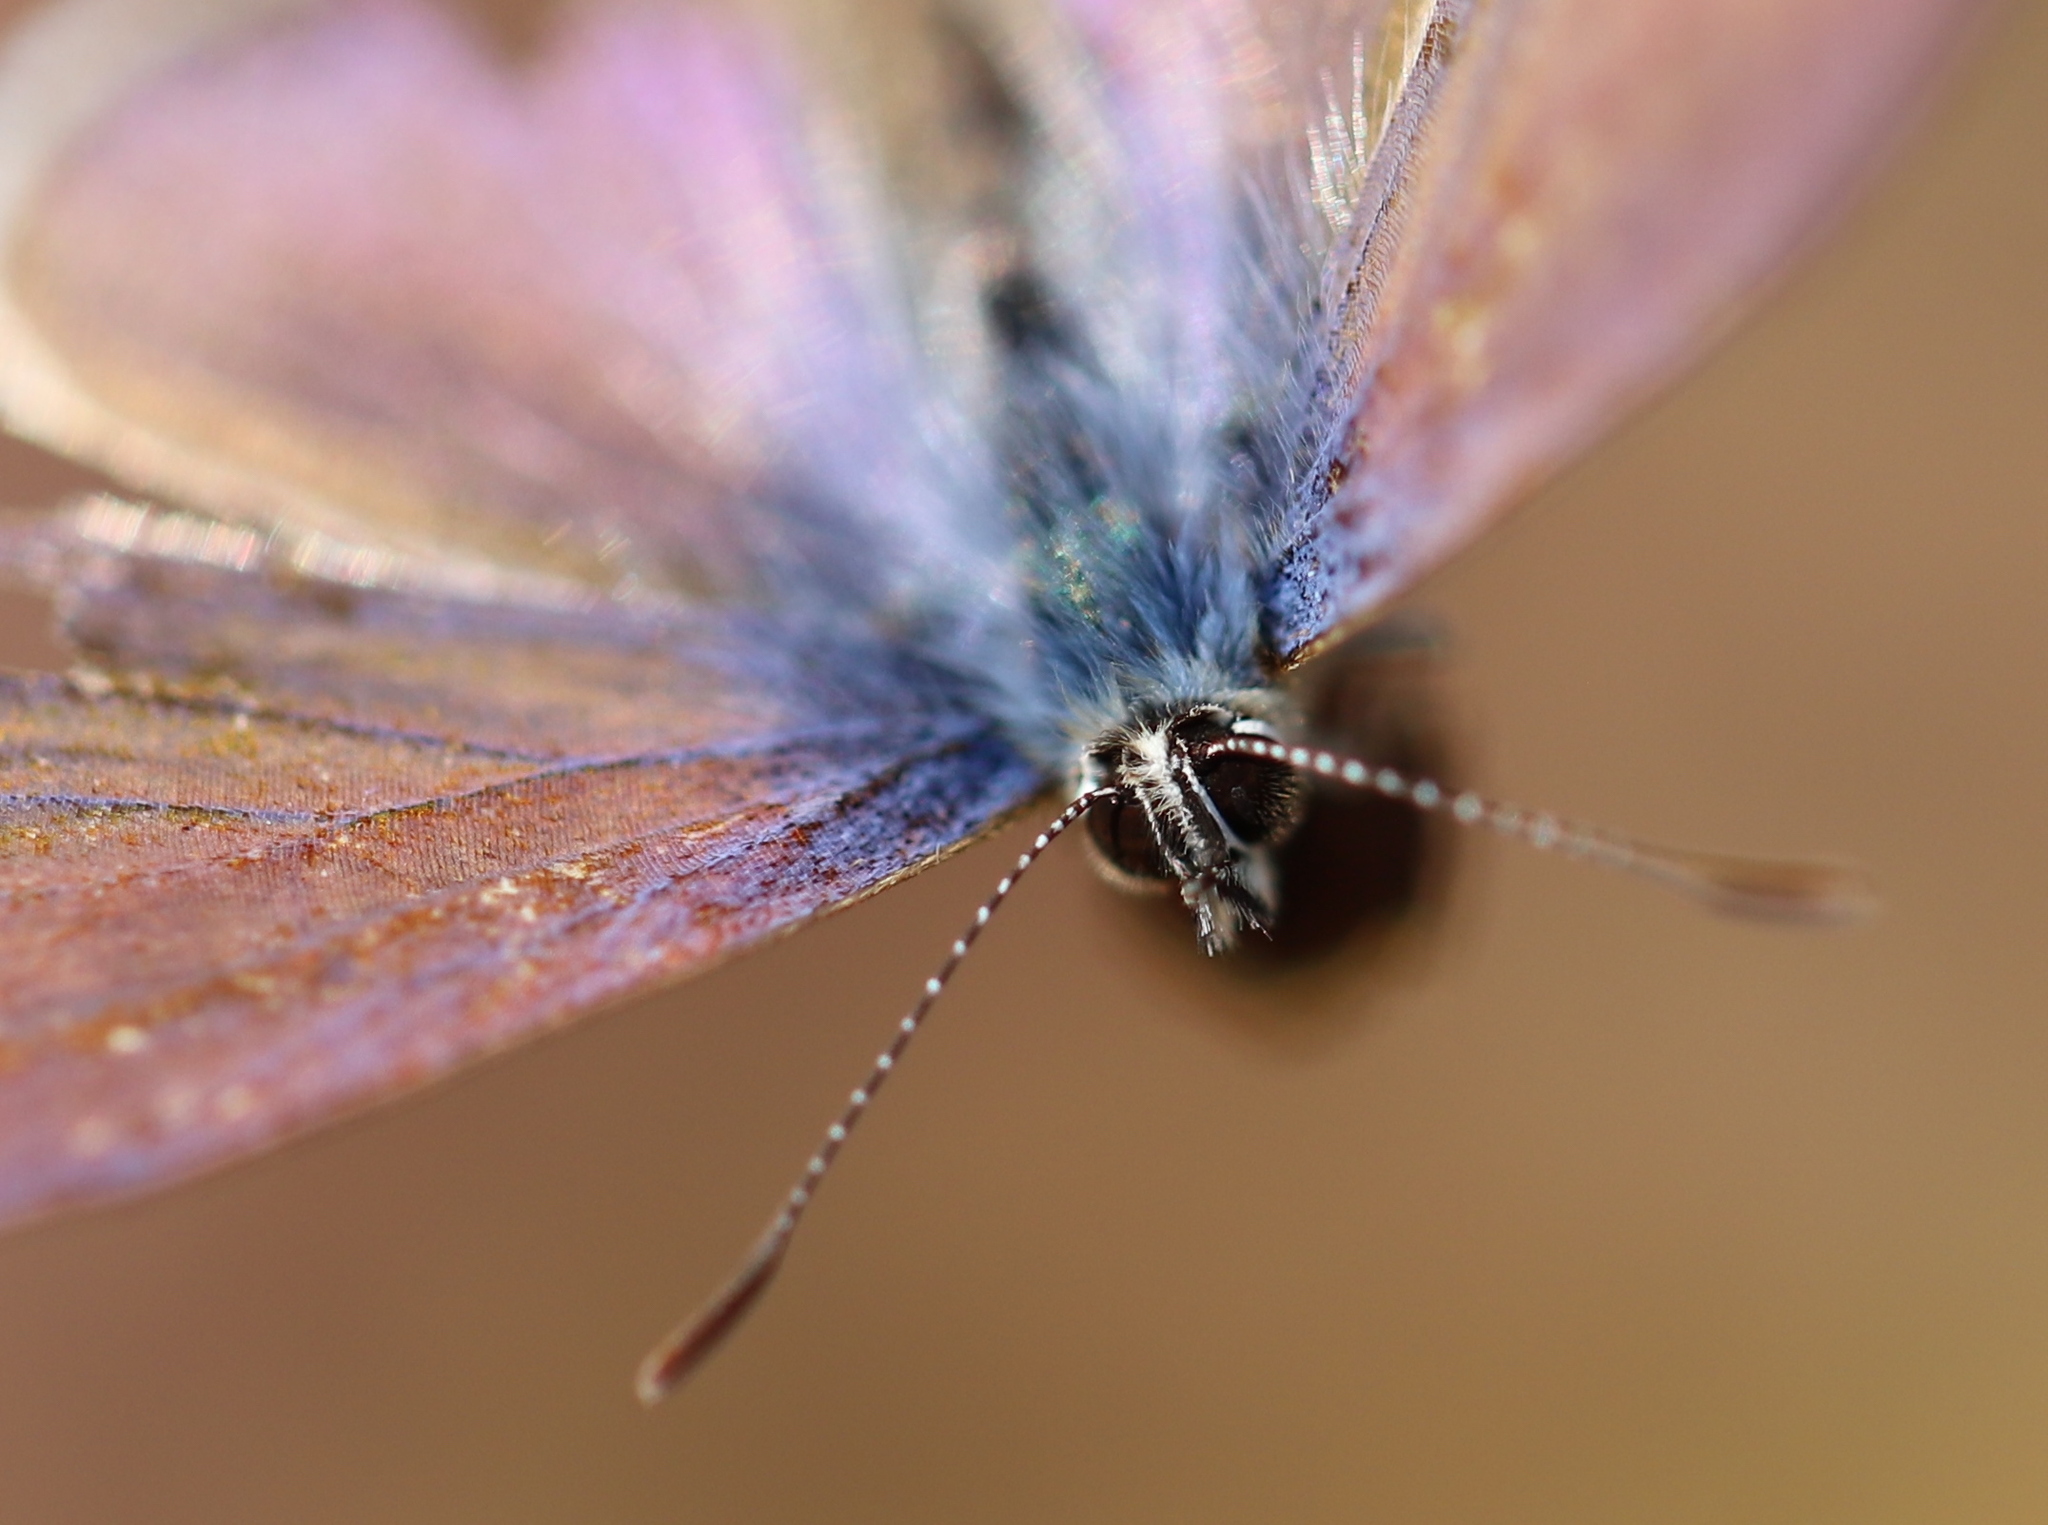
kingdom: Animalia
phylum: Arthropoda
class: Insecta
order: Lepidoptera
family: Lycaenidae
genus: Leptotes
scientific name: Leptotes trigemmatus
